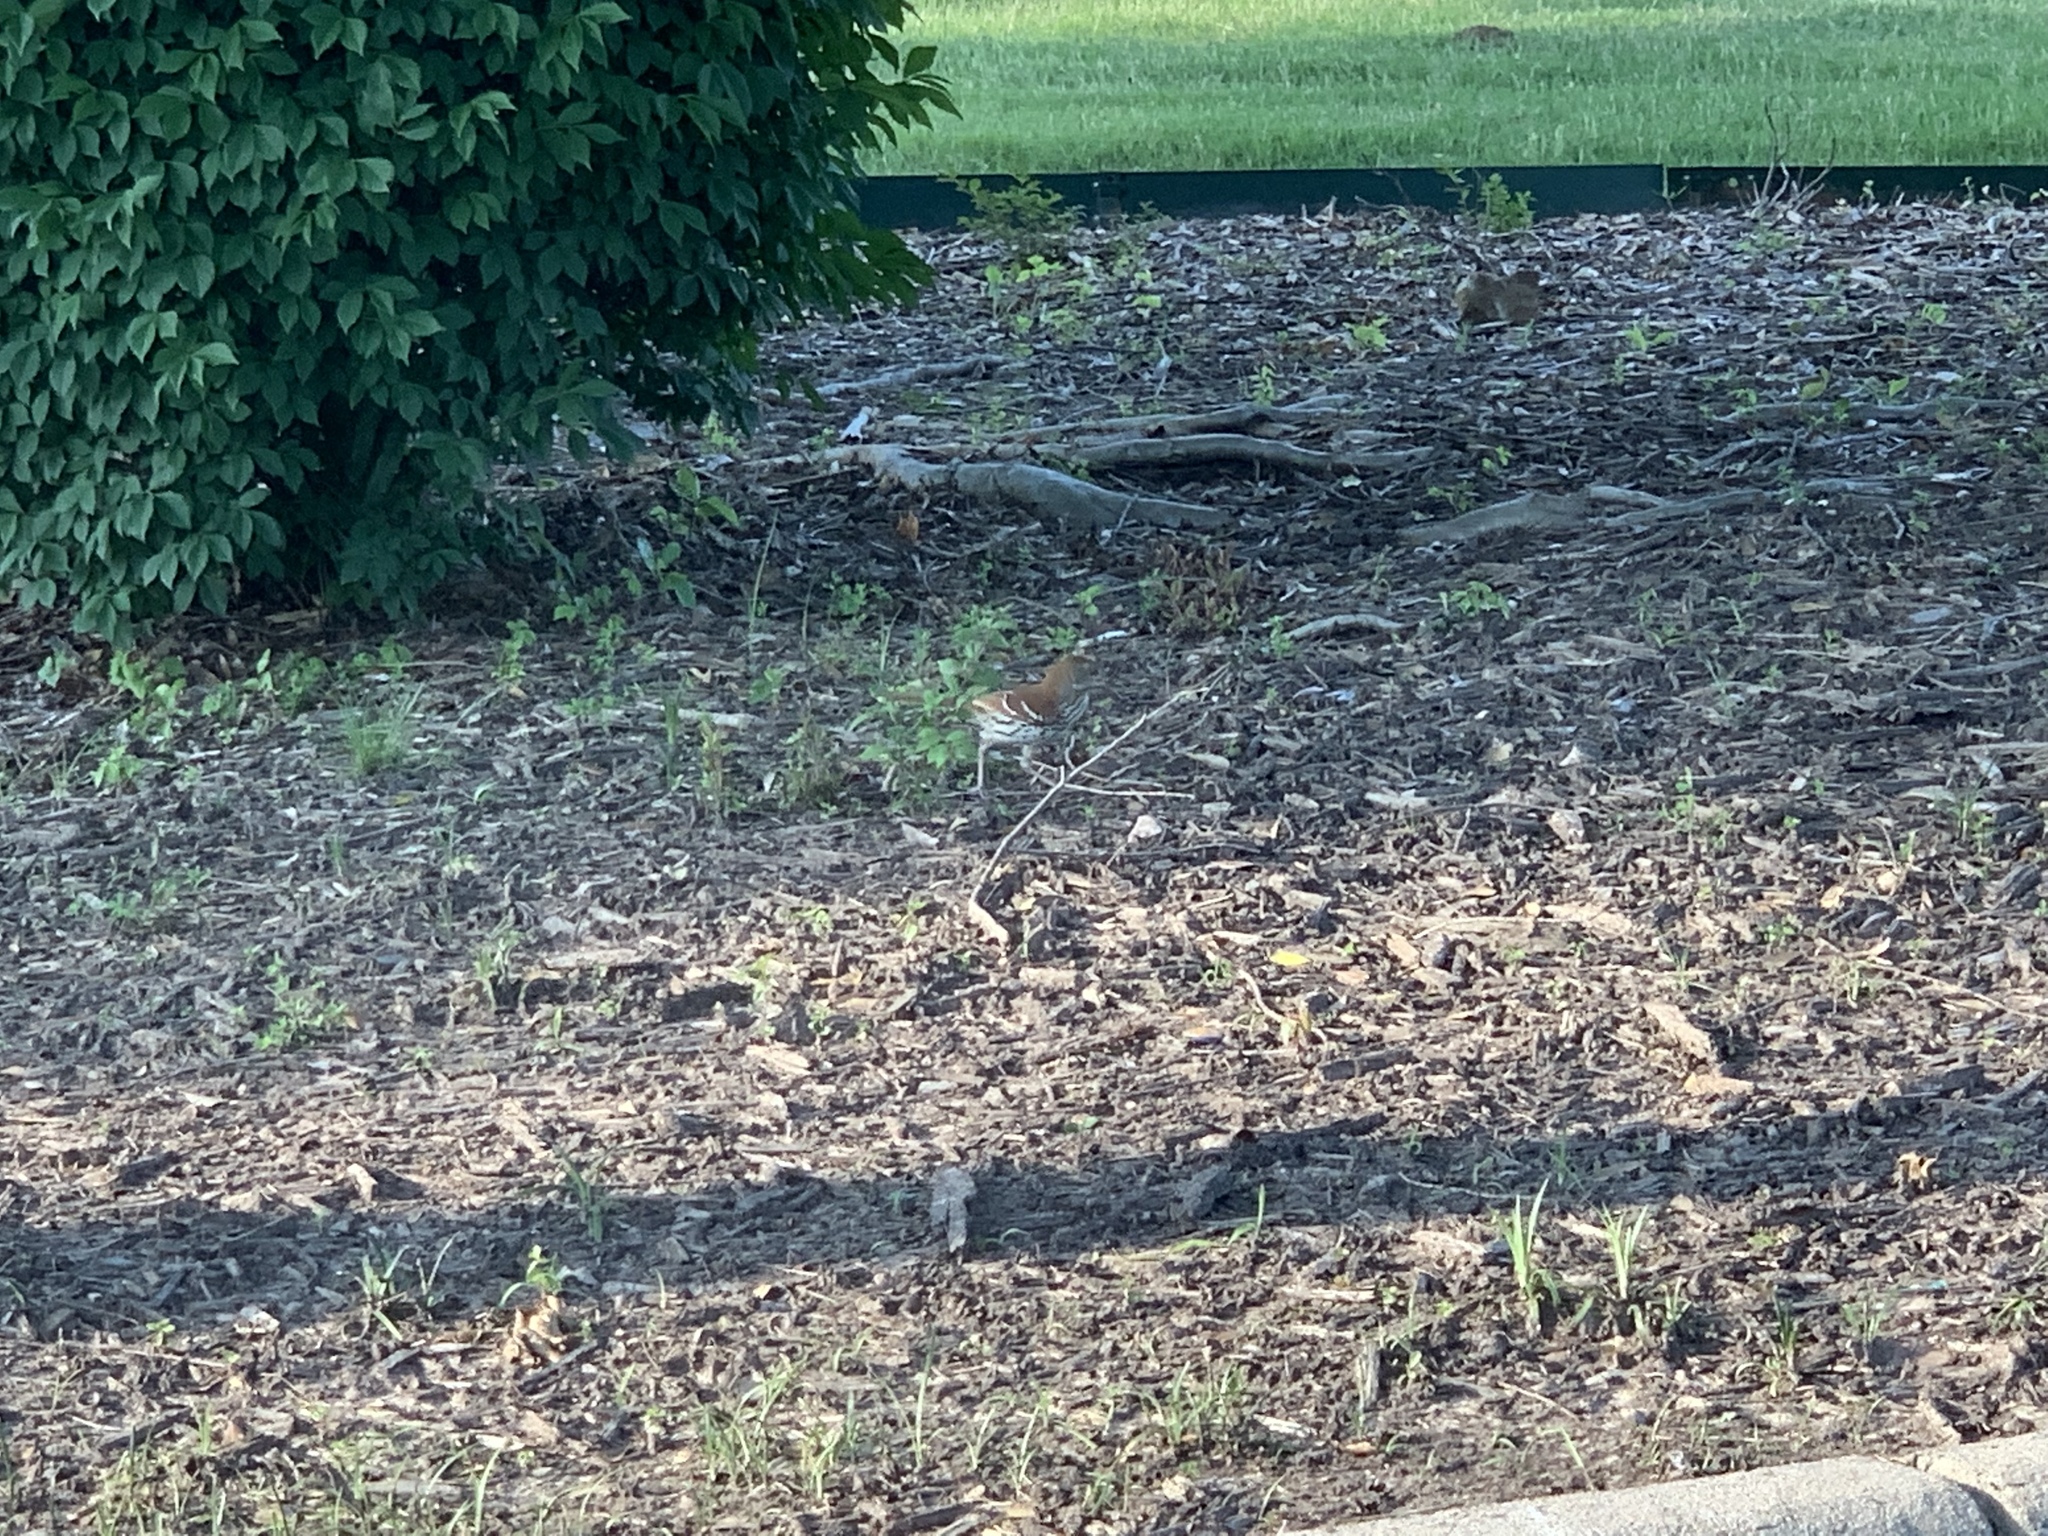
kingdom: Animalia
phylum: Chordata
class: Aves
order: Passeriformes
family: Mimidae
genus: Toxostoma
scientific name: Toxostoma rufum
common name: Brown thrasher
